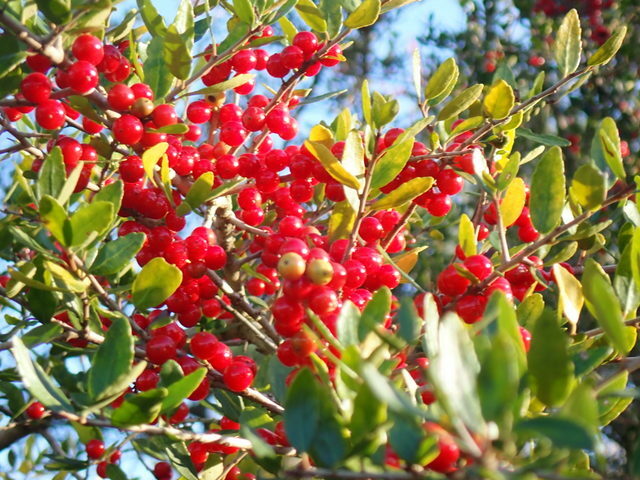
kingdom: Plantae
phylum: Tracheophyta
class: Magnoliopsida
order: Aquifoliales
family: Aquifoliaceae
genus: Ilex
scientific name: Ilex vomitoria
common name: Yaupon holly
